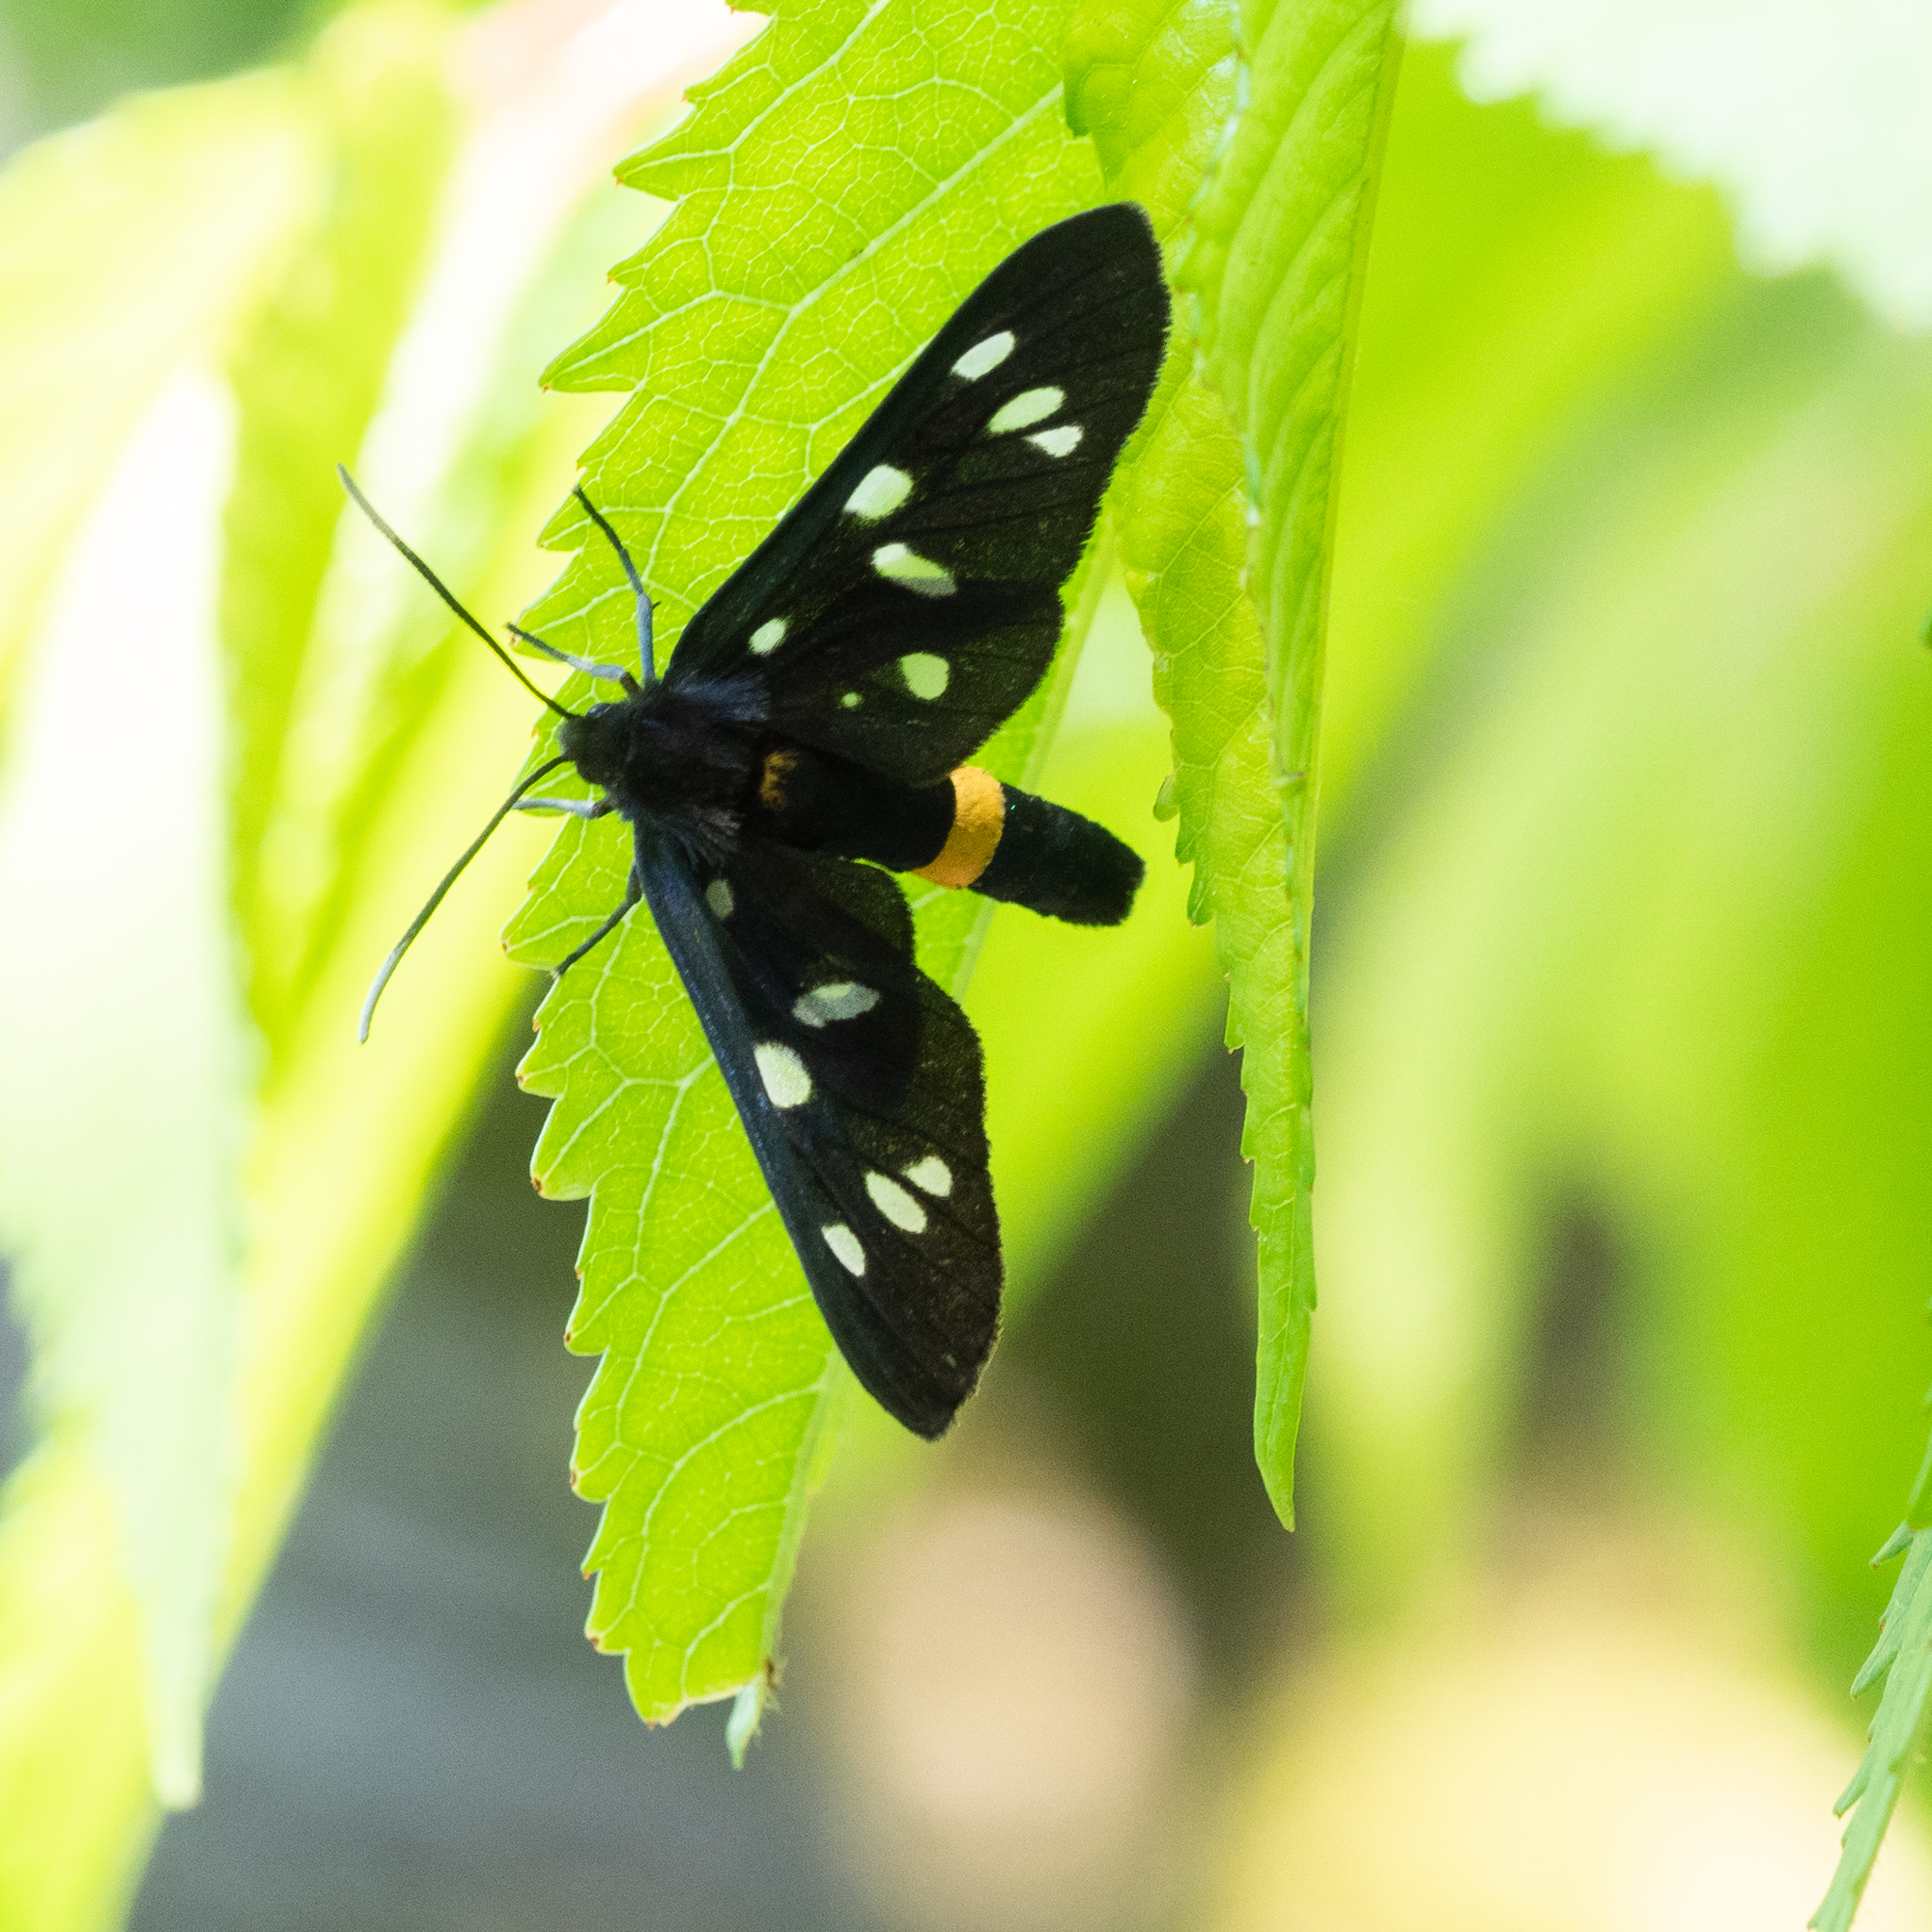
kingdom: Animalia
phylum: Arthropoda
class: Insecta
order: Lepidoptera
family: Erebidae
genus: Amata
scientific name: Amata phegea
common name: Nine-spotted
